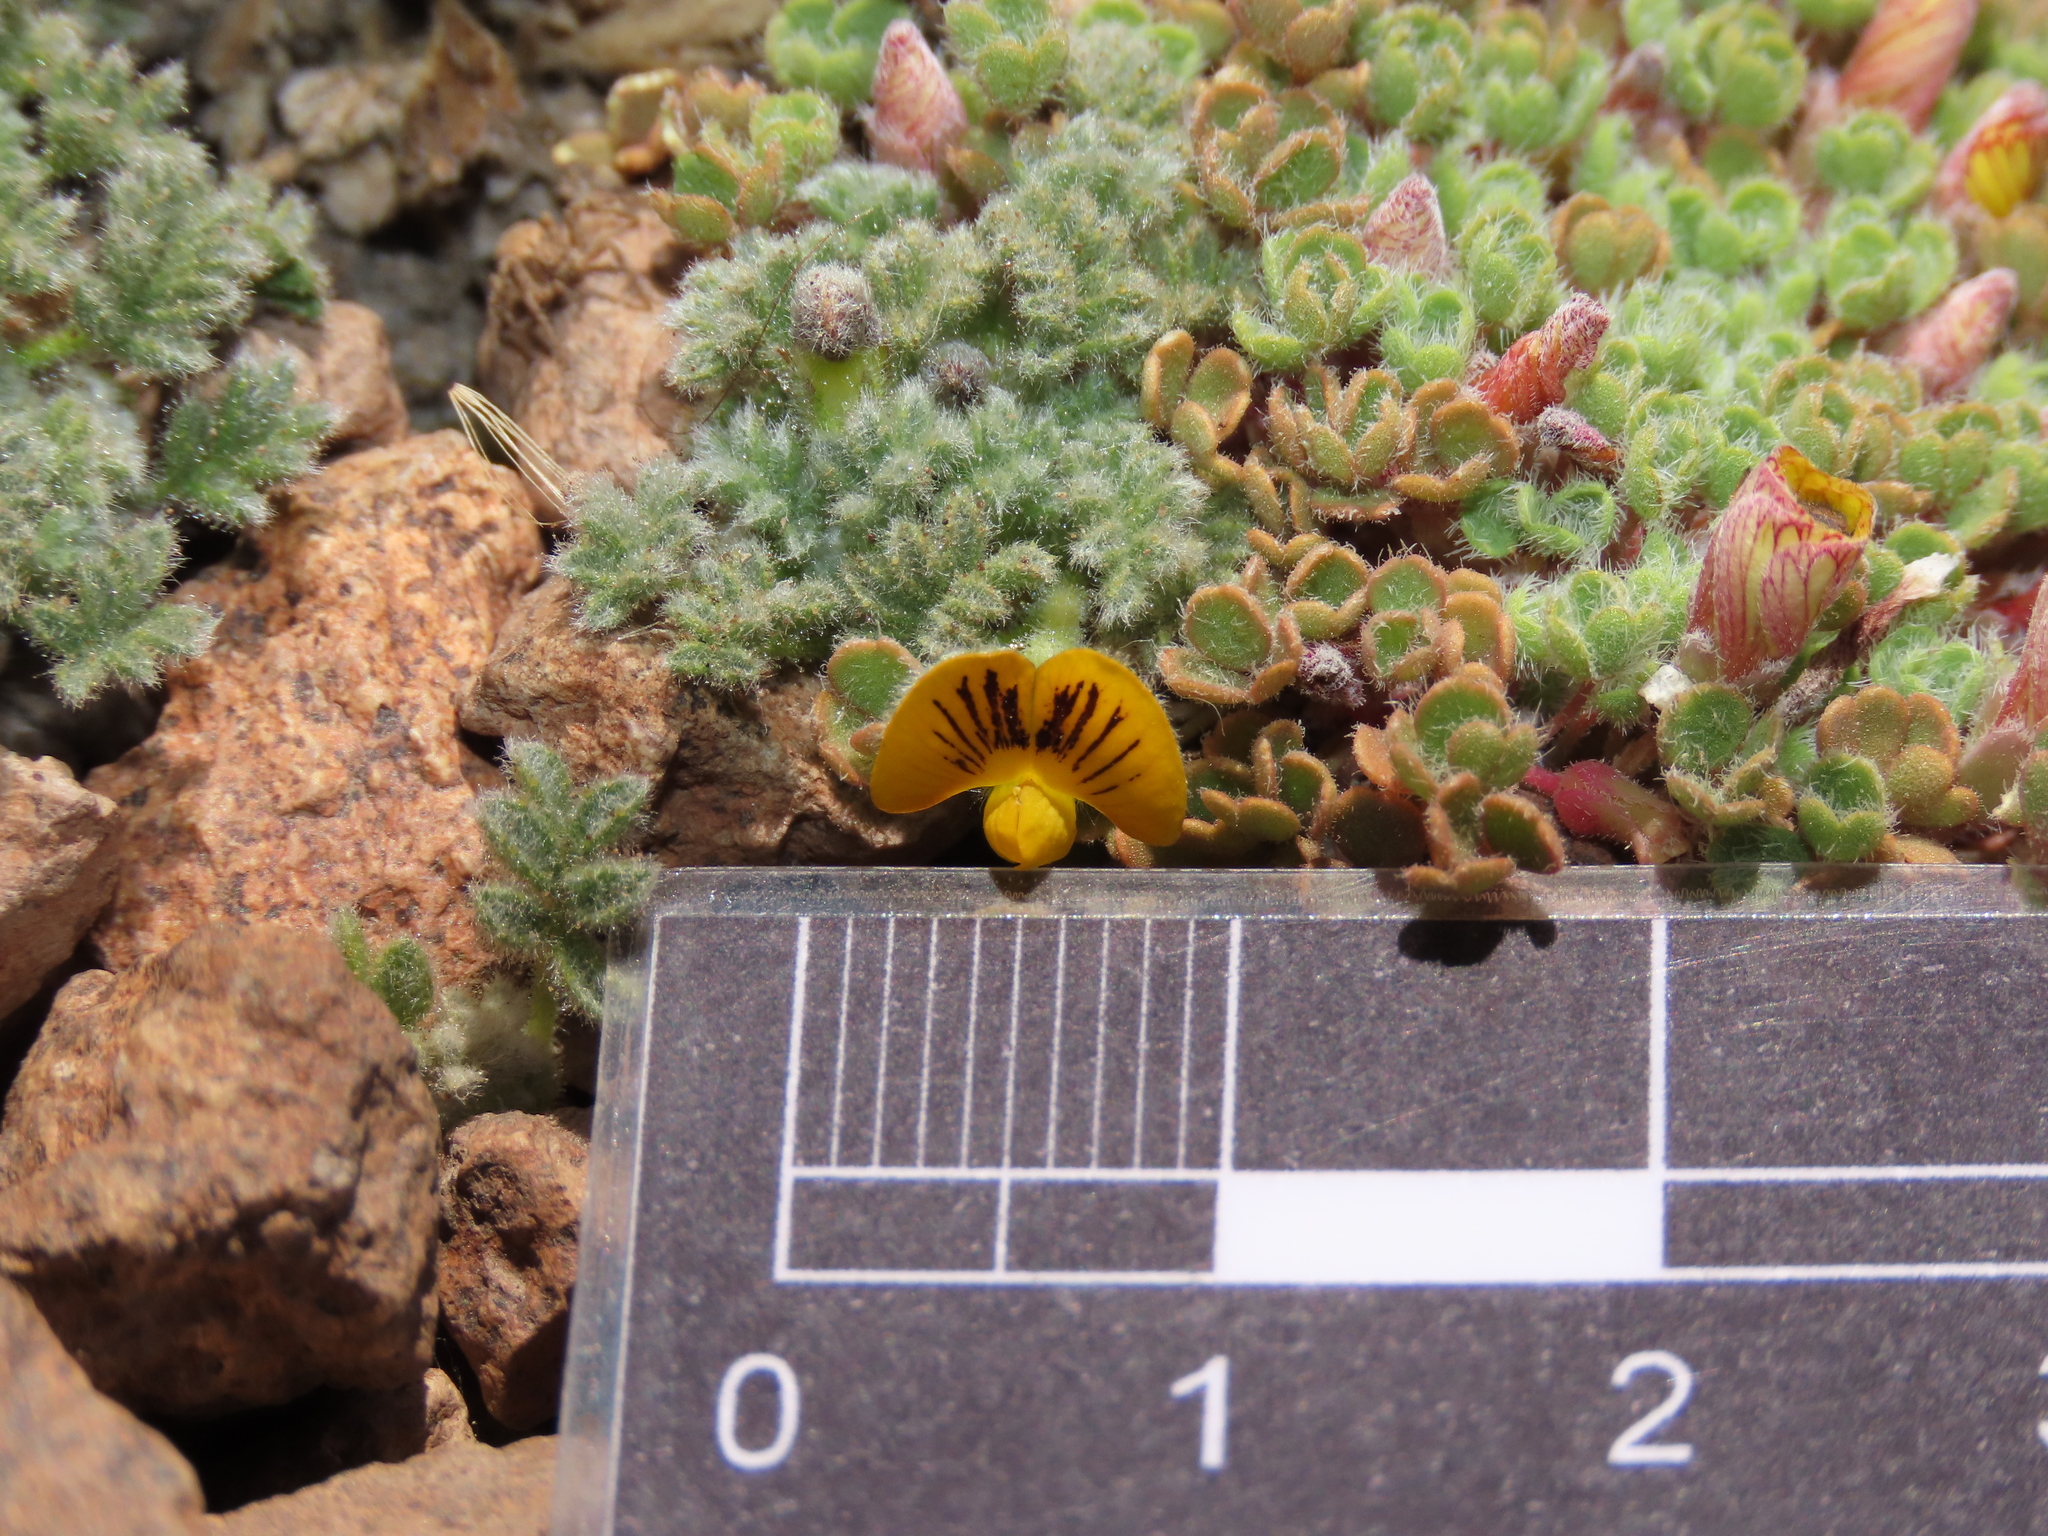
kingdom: Plantae
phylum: Tracheophyta
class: Magnoliopsida
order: Fabales
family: Fabaceae
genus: Adesmia
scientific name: Adesmia glomerula
